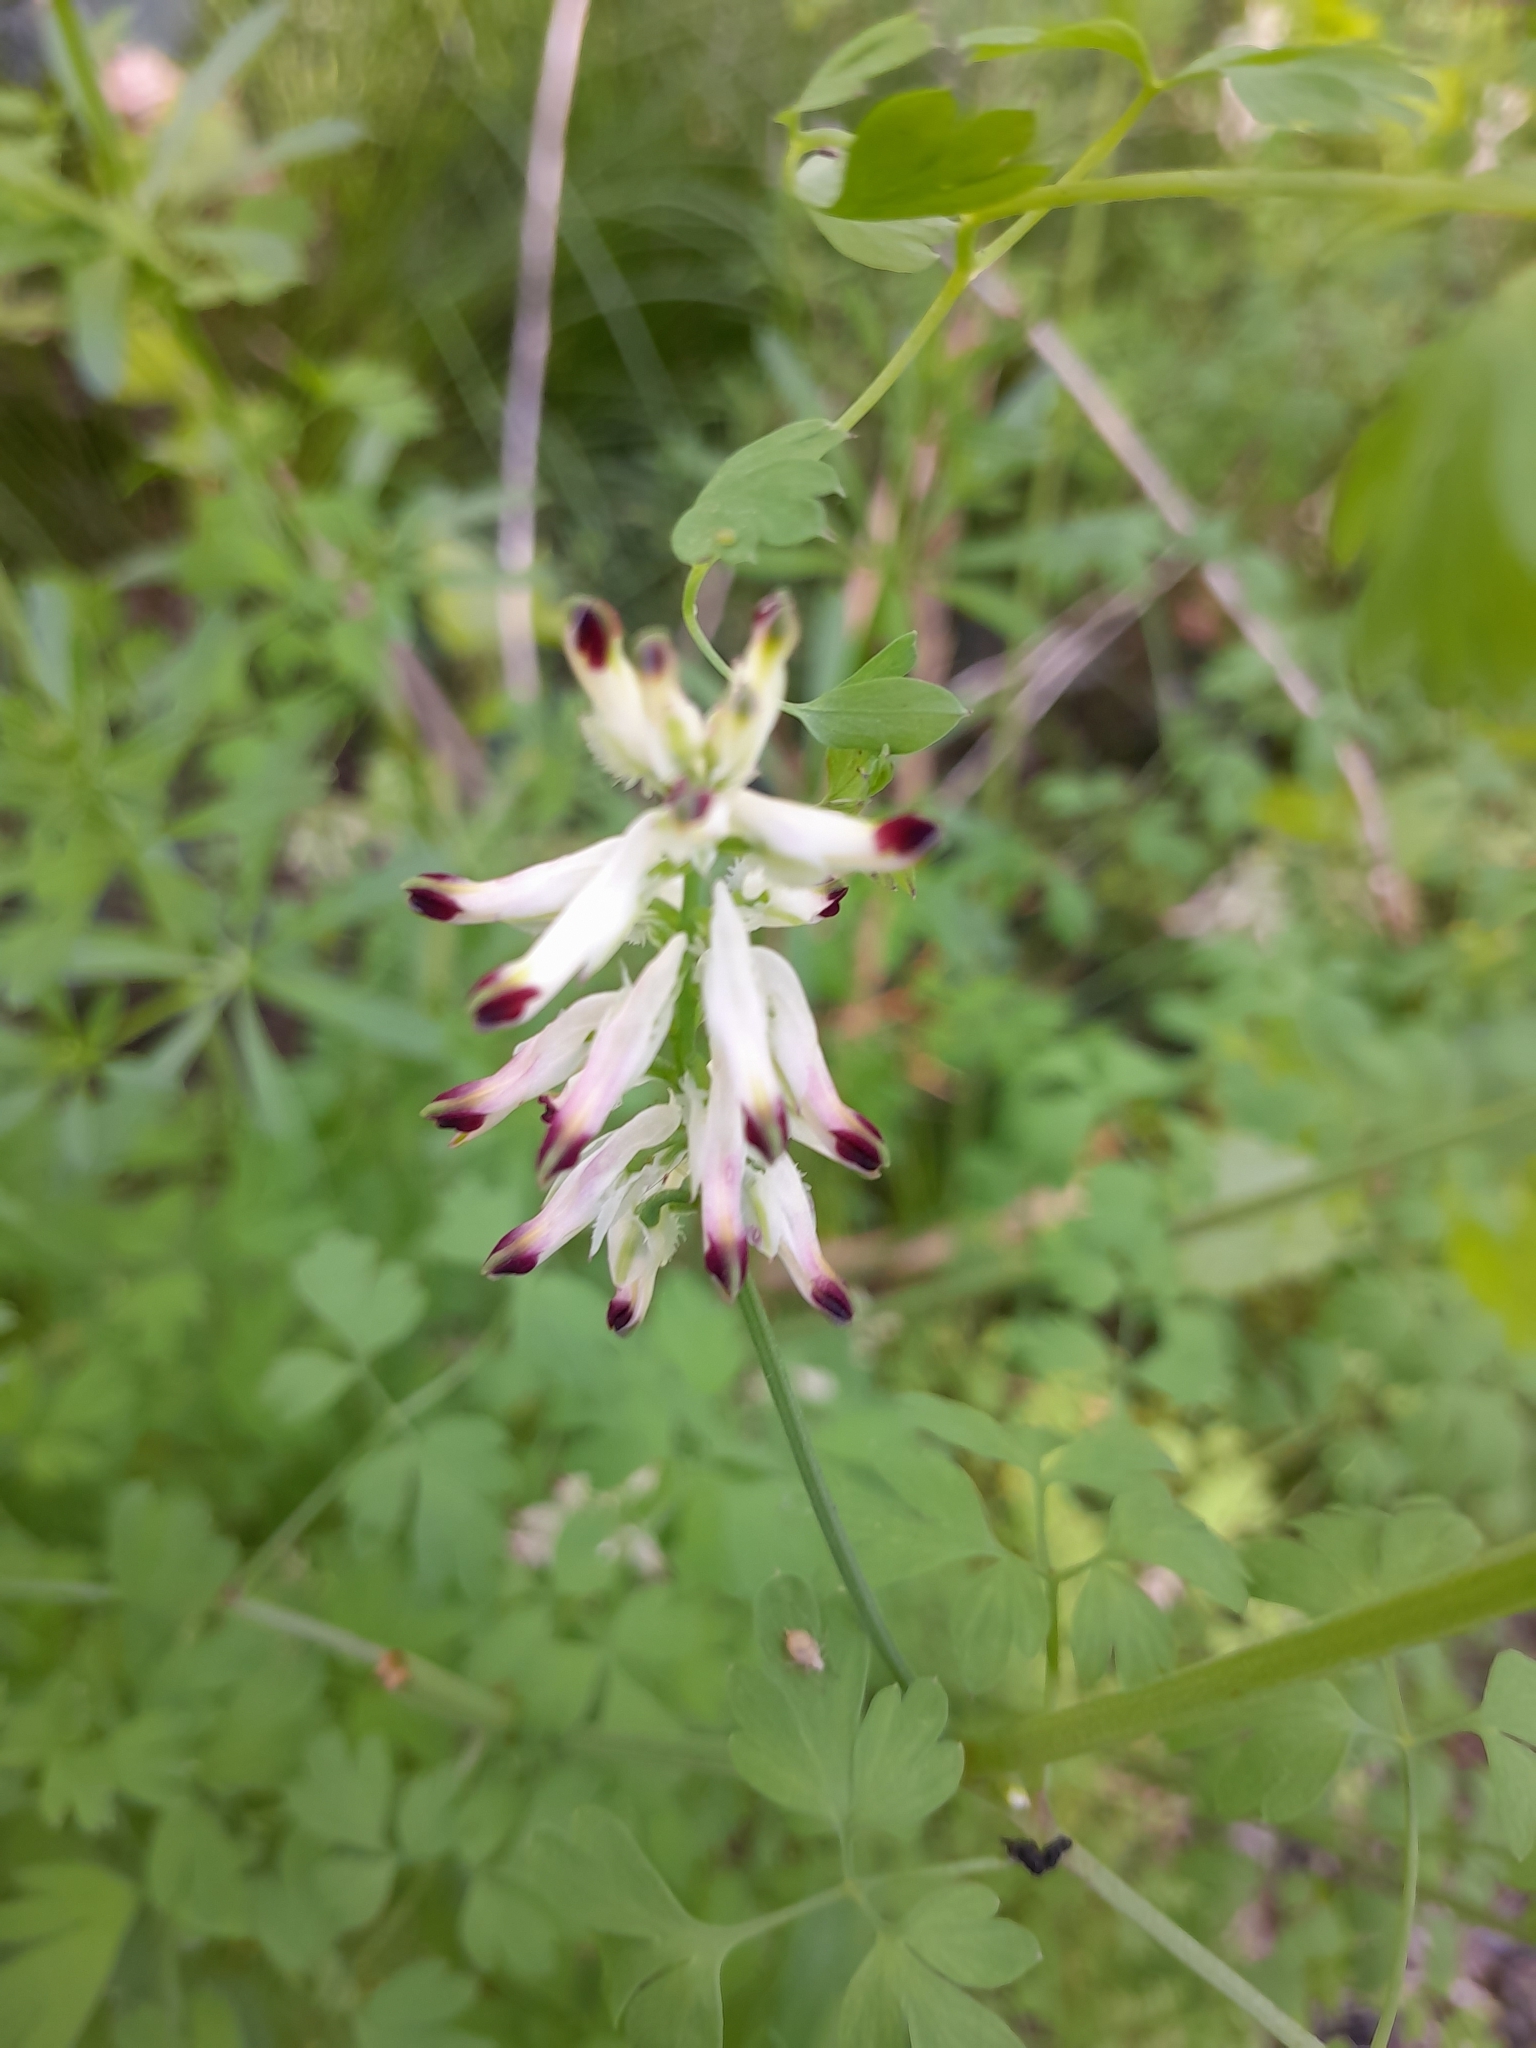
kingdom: Plantae
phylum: Tracheophyta
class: Magnoliopsida
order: Ranunculales
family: Papaveraceae
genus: Fumaria
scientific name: Fumaria capreolata
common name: White ramping-fumitory
